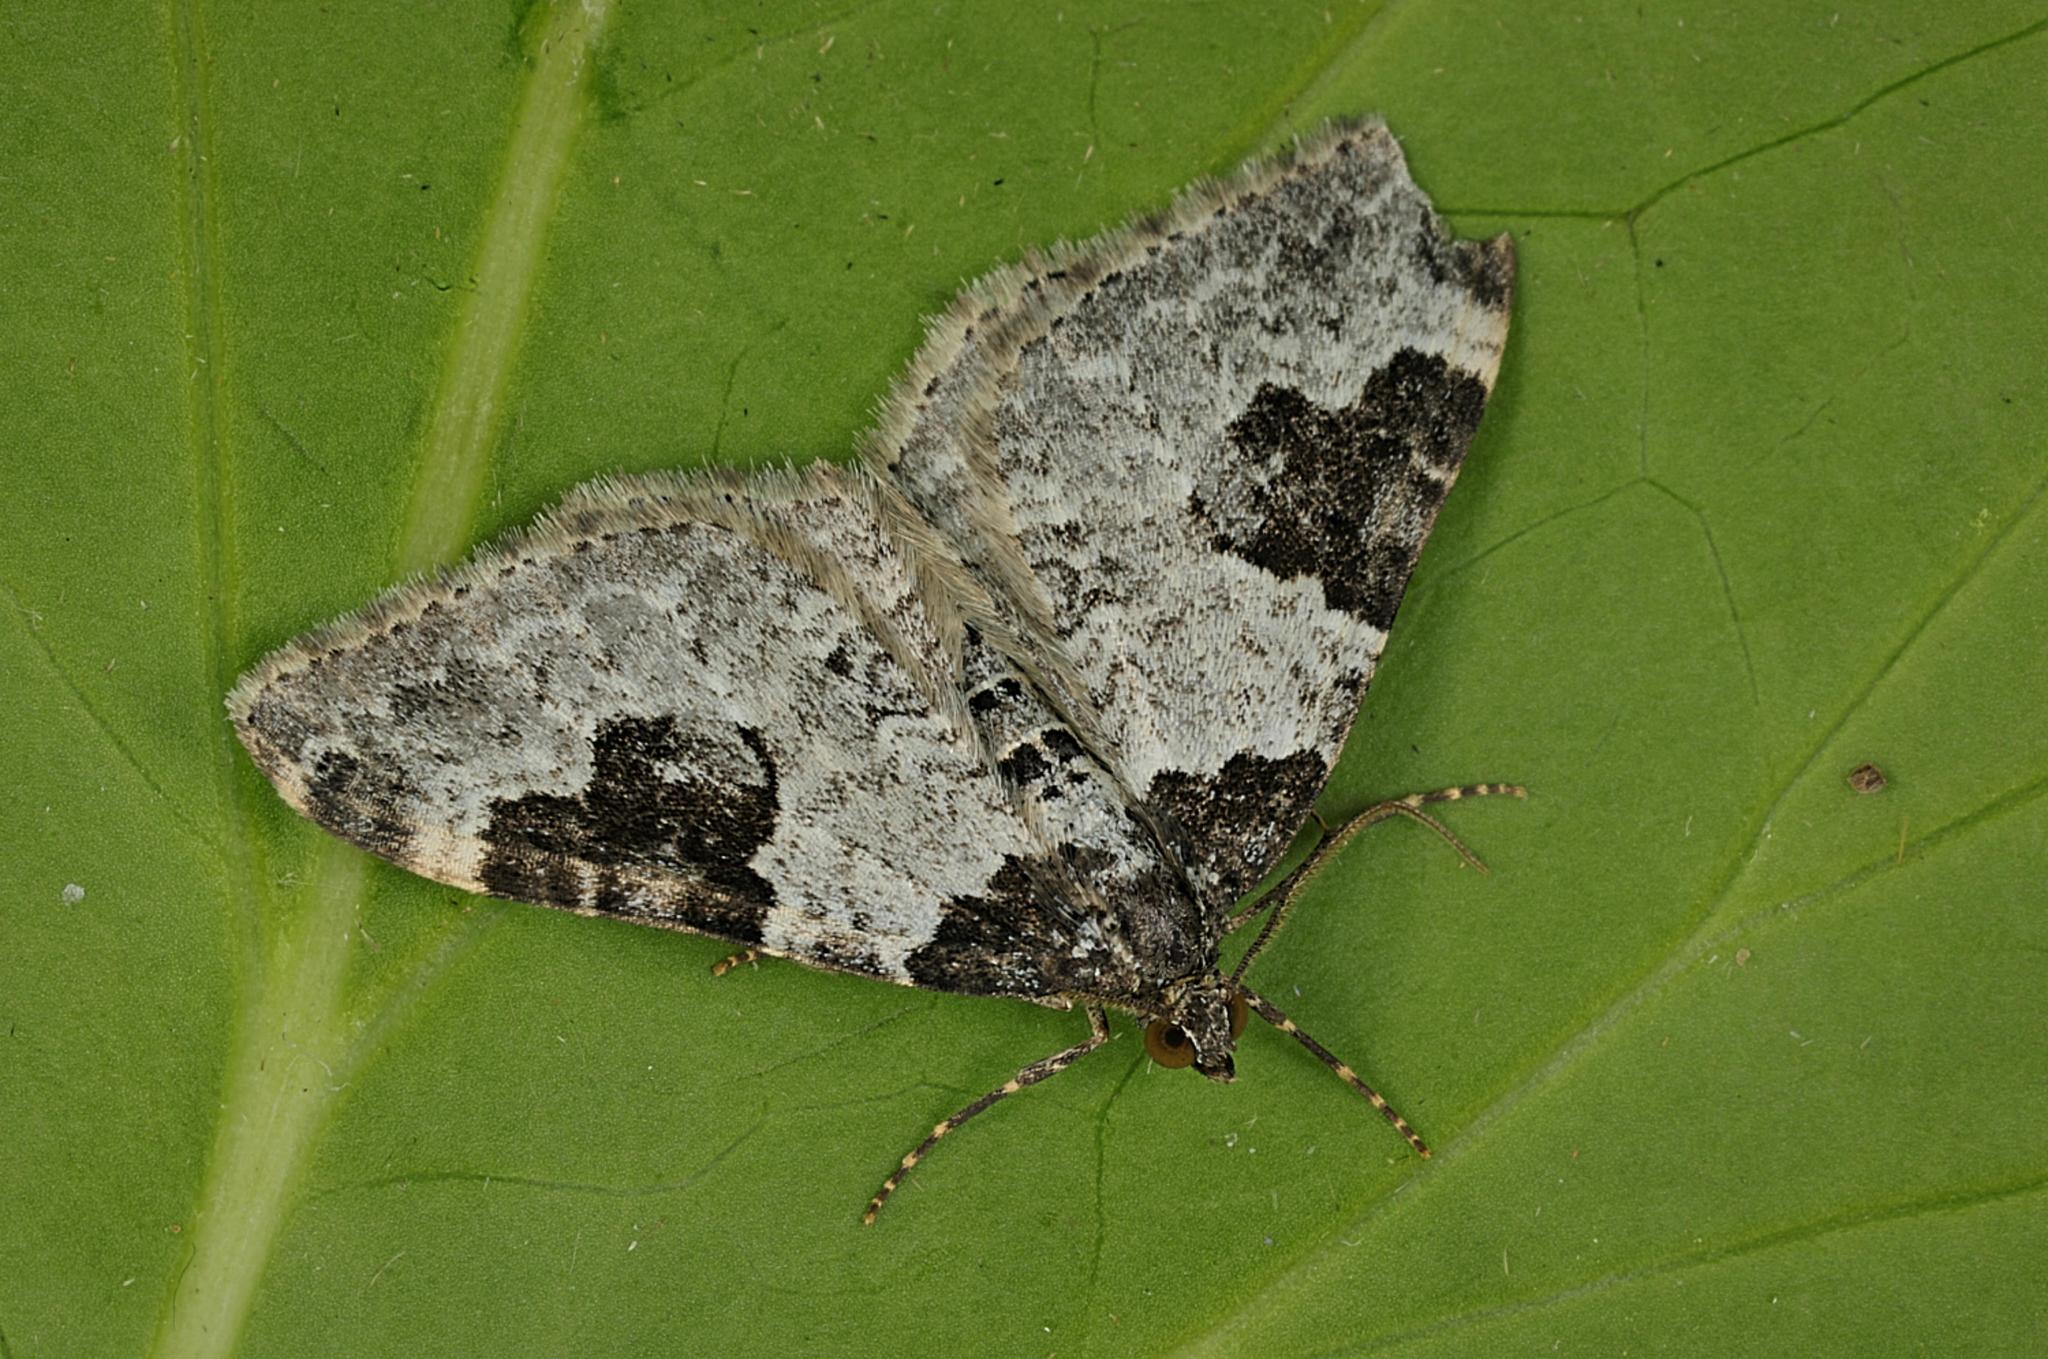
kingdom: Animalia
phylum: Arthropoda
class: Insecta
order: Lepidoptera
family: Geometridae
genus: Xanthorhoe
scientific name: Xanthorhoe fluctuata
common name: Garden carpet
